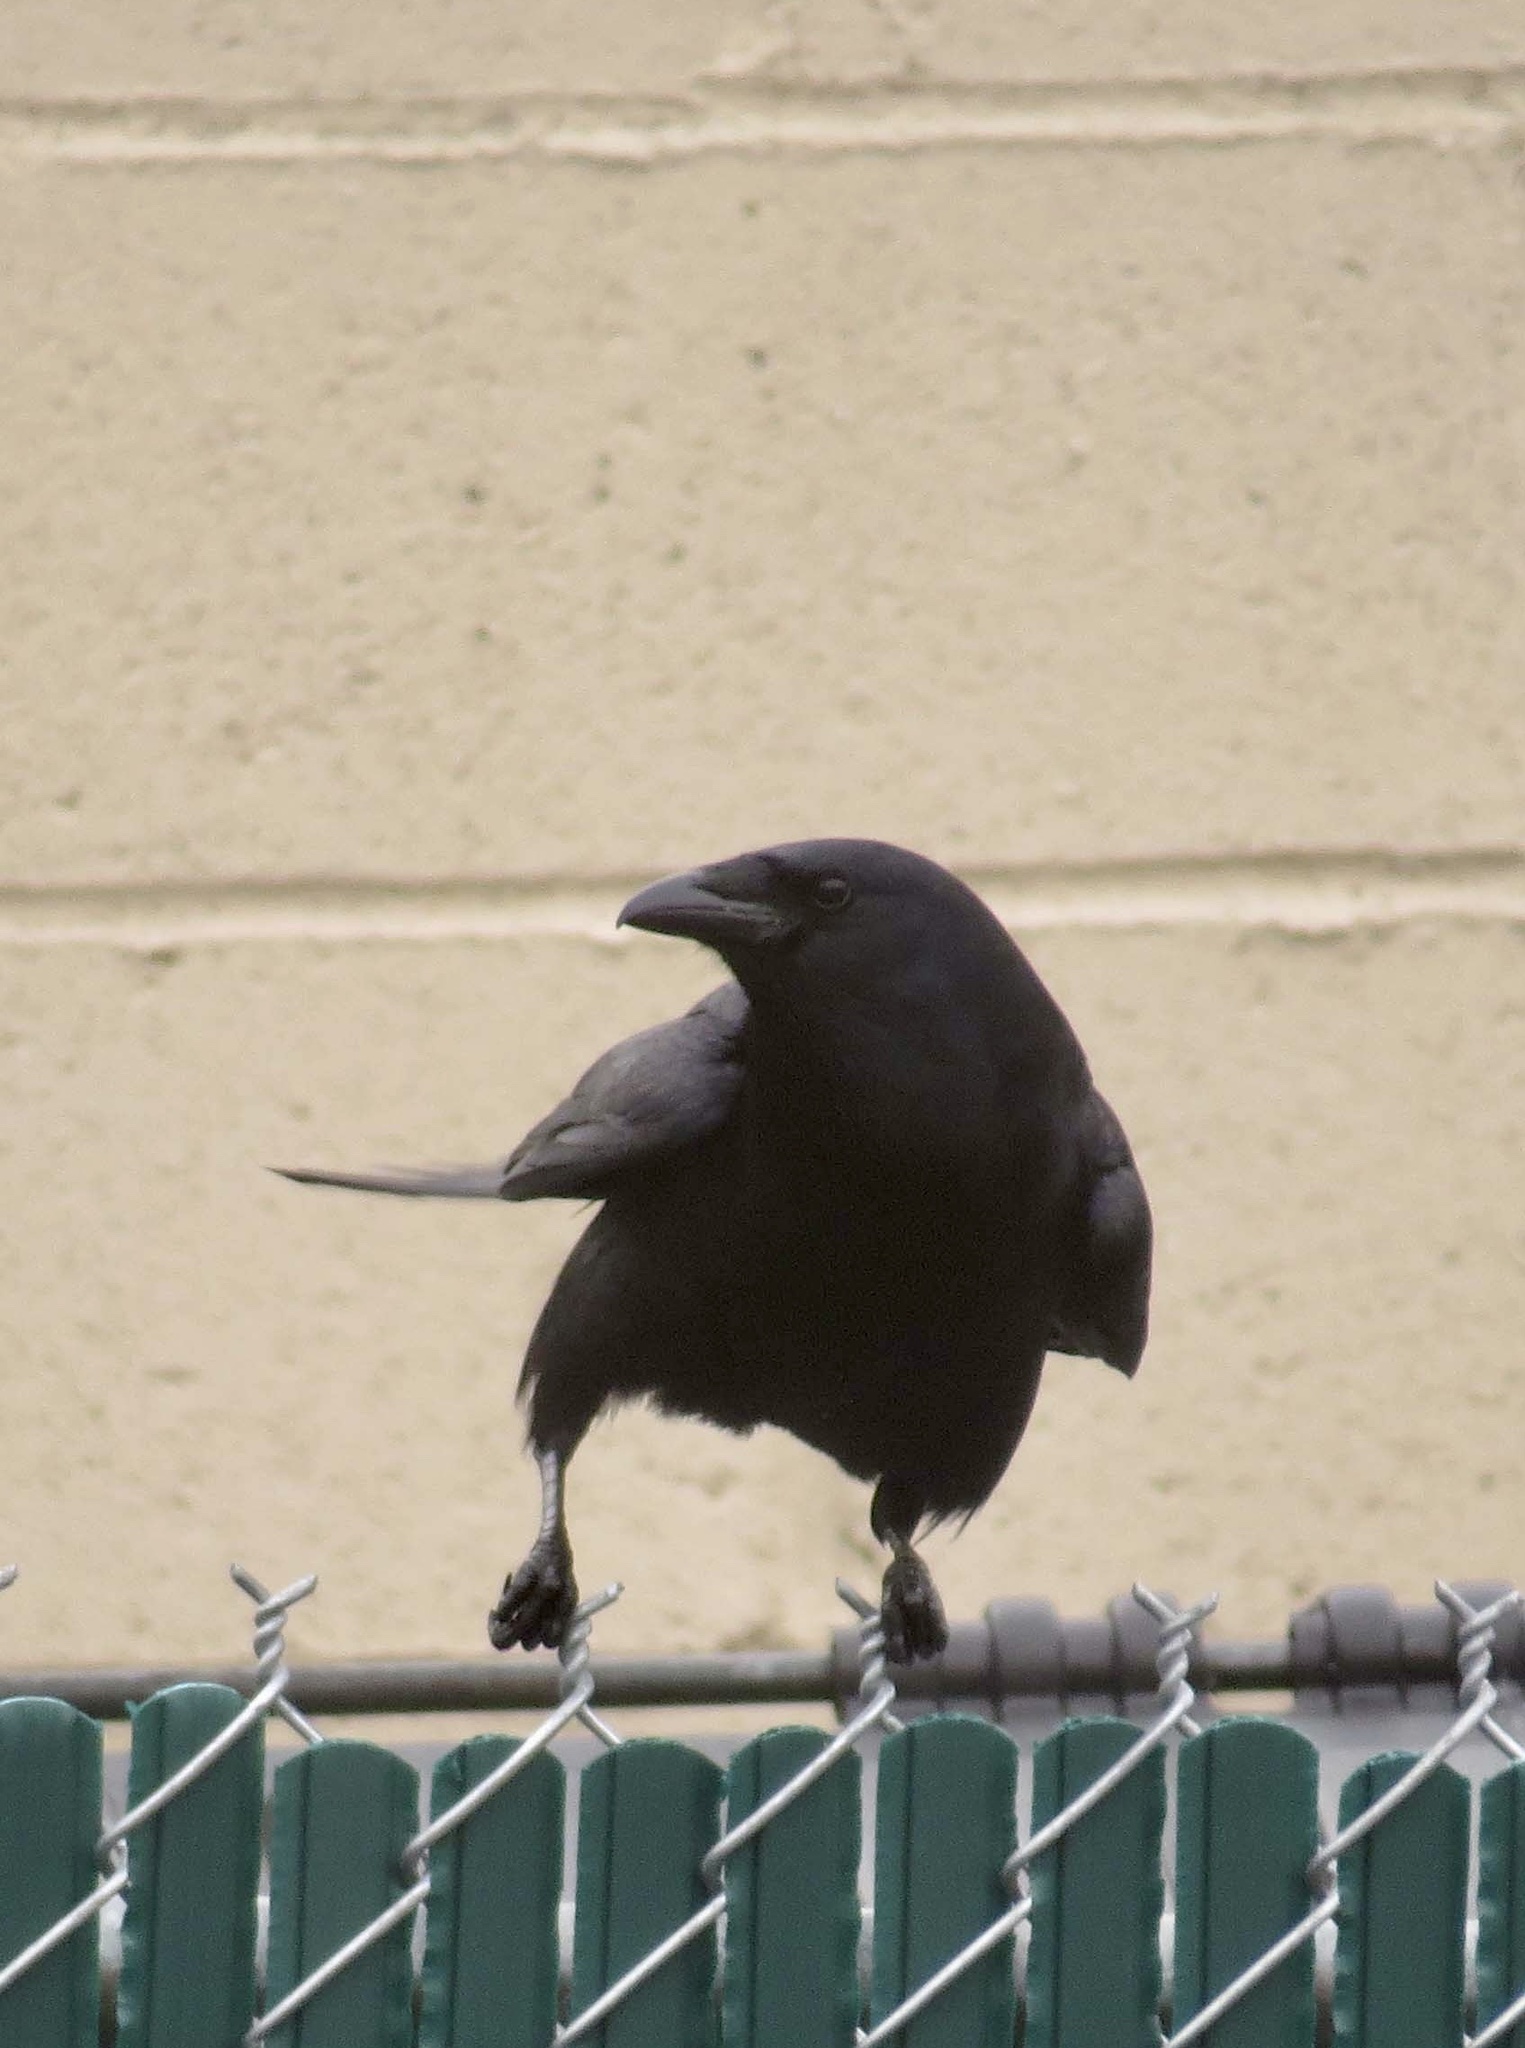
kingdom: Animalia
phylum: Chordata
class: Aves
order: Passeriformes
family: Corvidae
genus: Corvus
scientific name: Corvus ossifragus
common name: Fish crow
